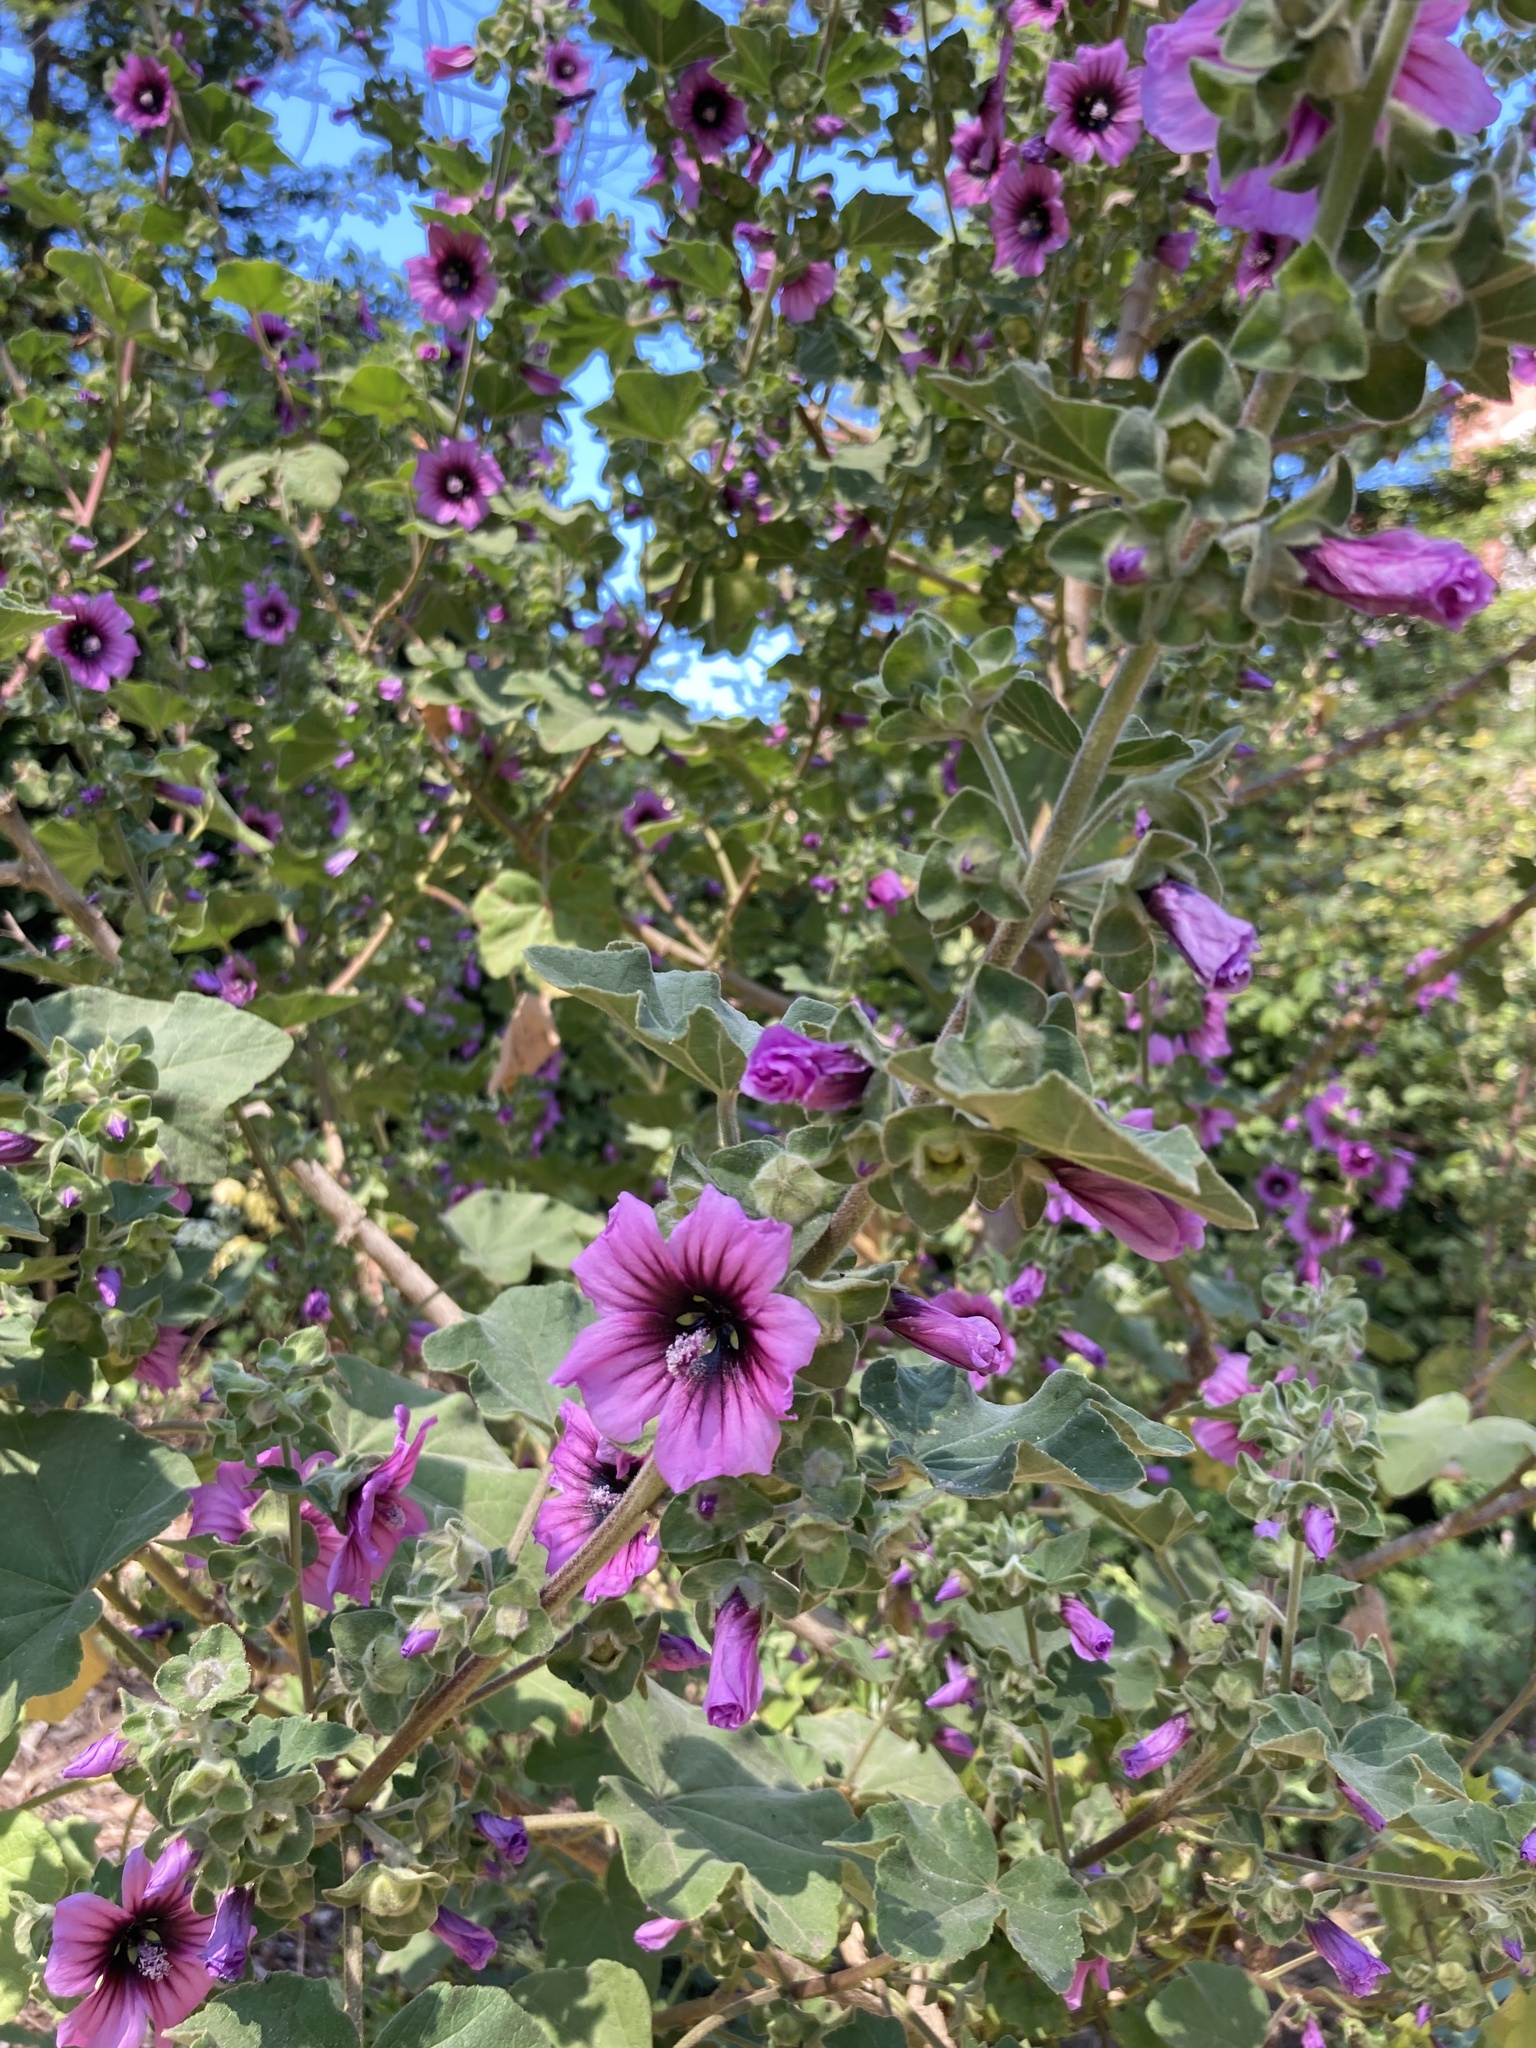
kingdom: Plantae
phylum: Tracheophyta
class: Magnoliopsida
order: Malvales
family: Malvaceae
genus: Malva
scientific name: Malva arborea
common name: Tree mallow
